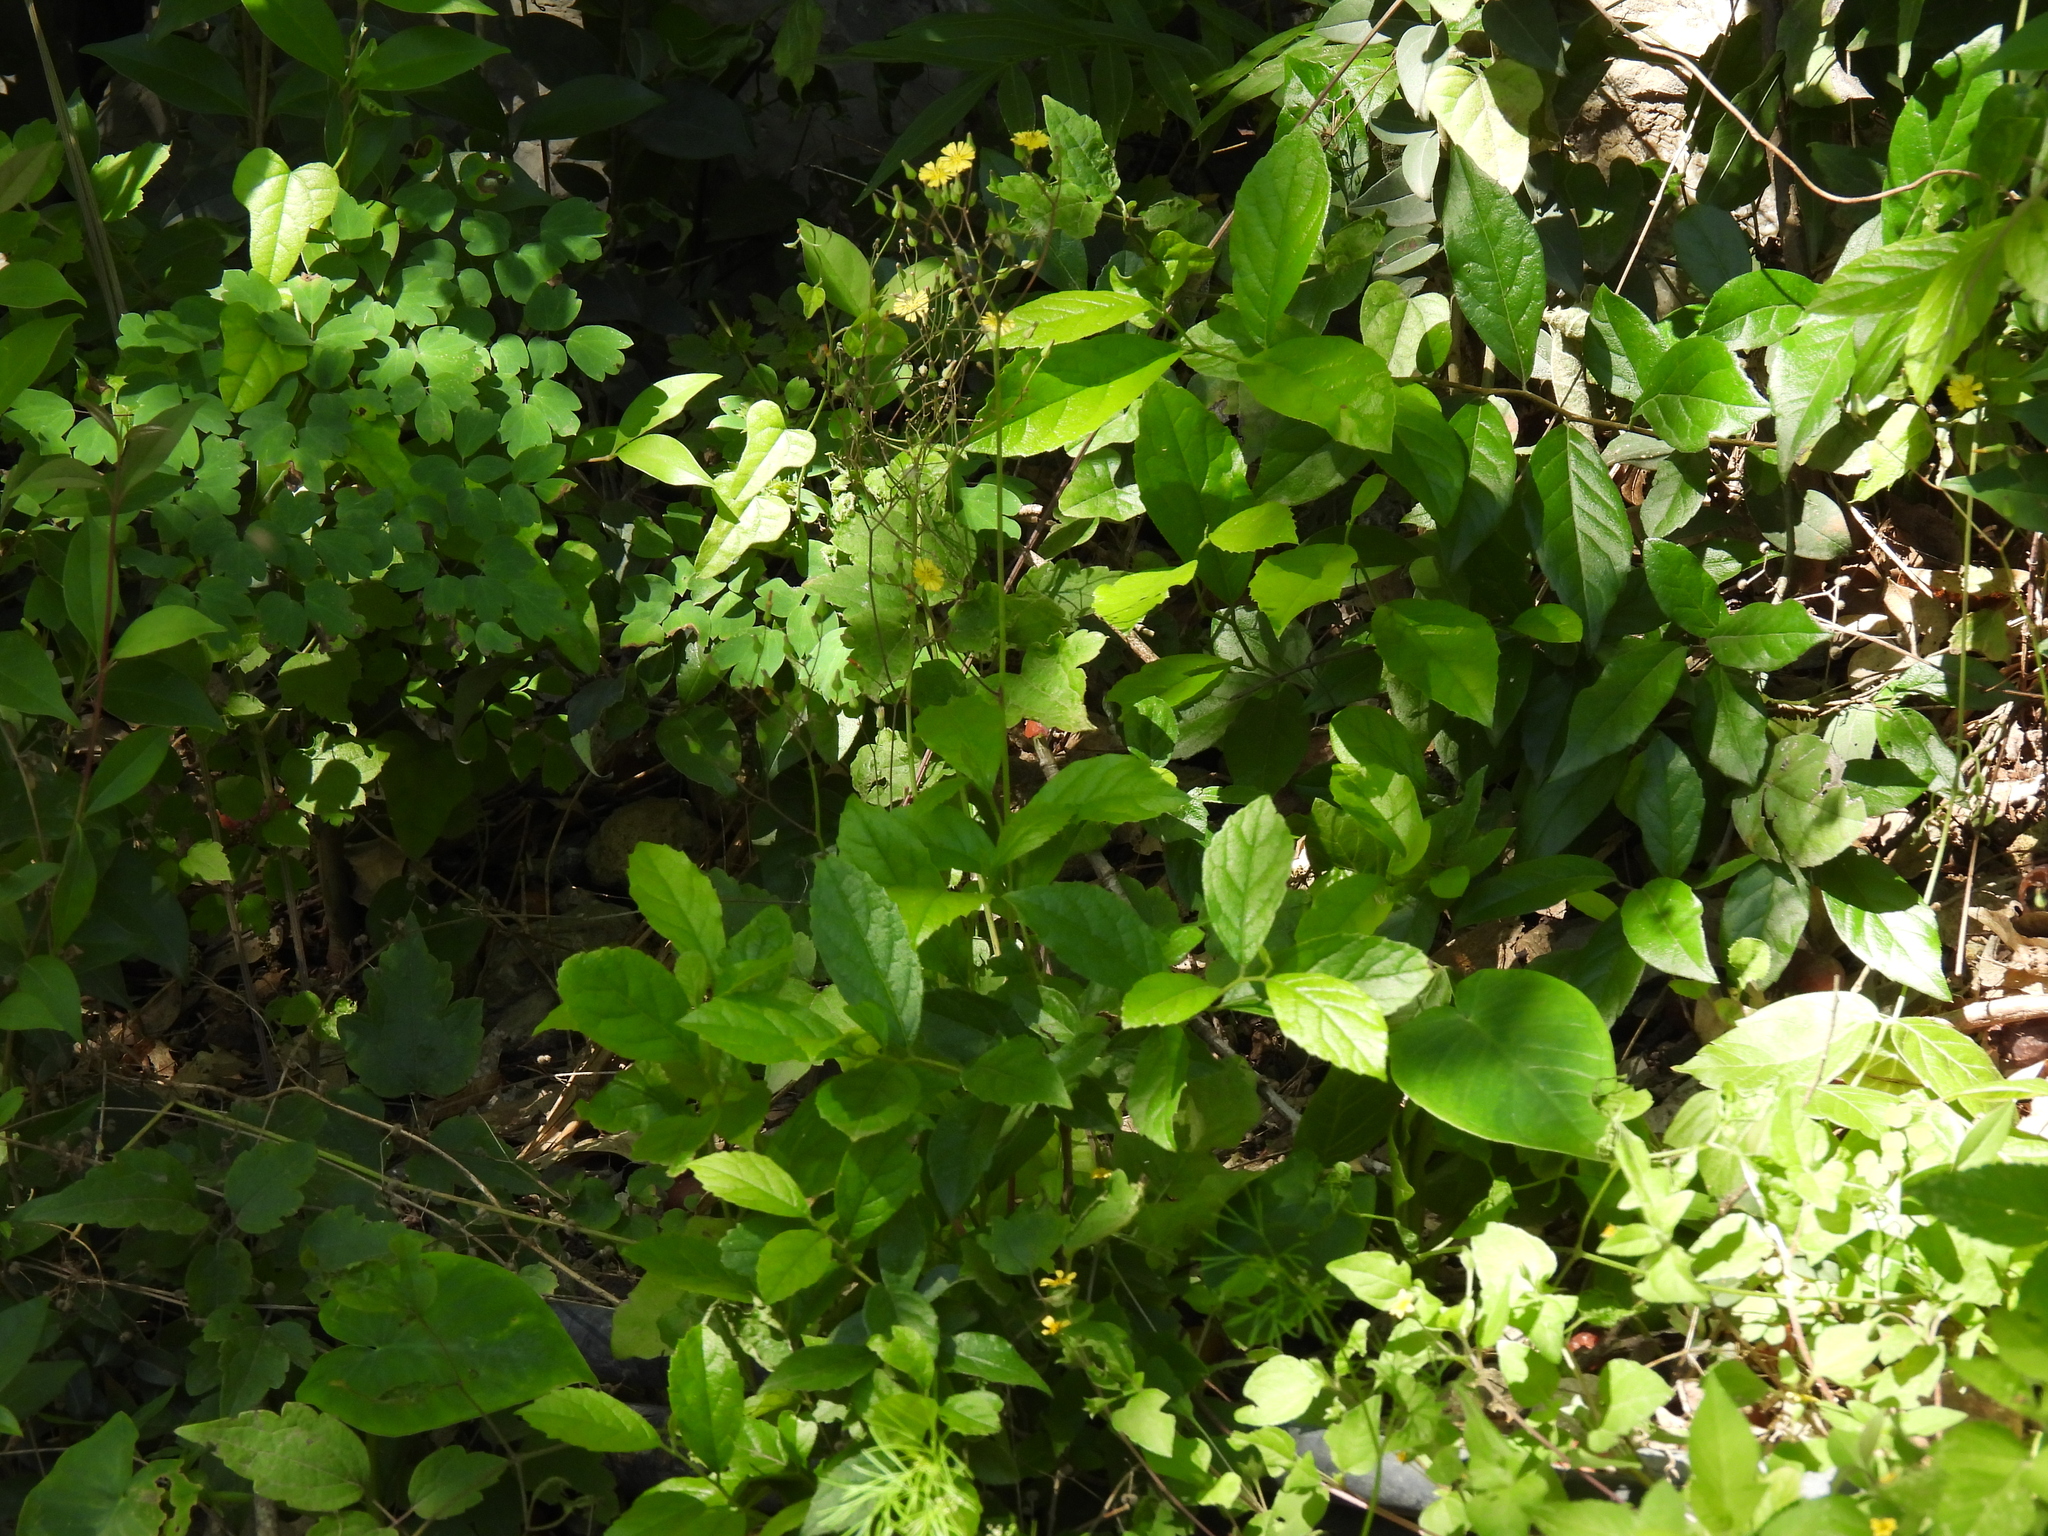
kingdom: Plantae
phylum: Tracheophyta
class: Magnoliopsida
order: Asterales
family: Asteraceae
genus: Youngia
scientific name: Youngia japonica
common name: Oriental false hawksbeard
